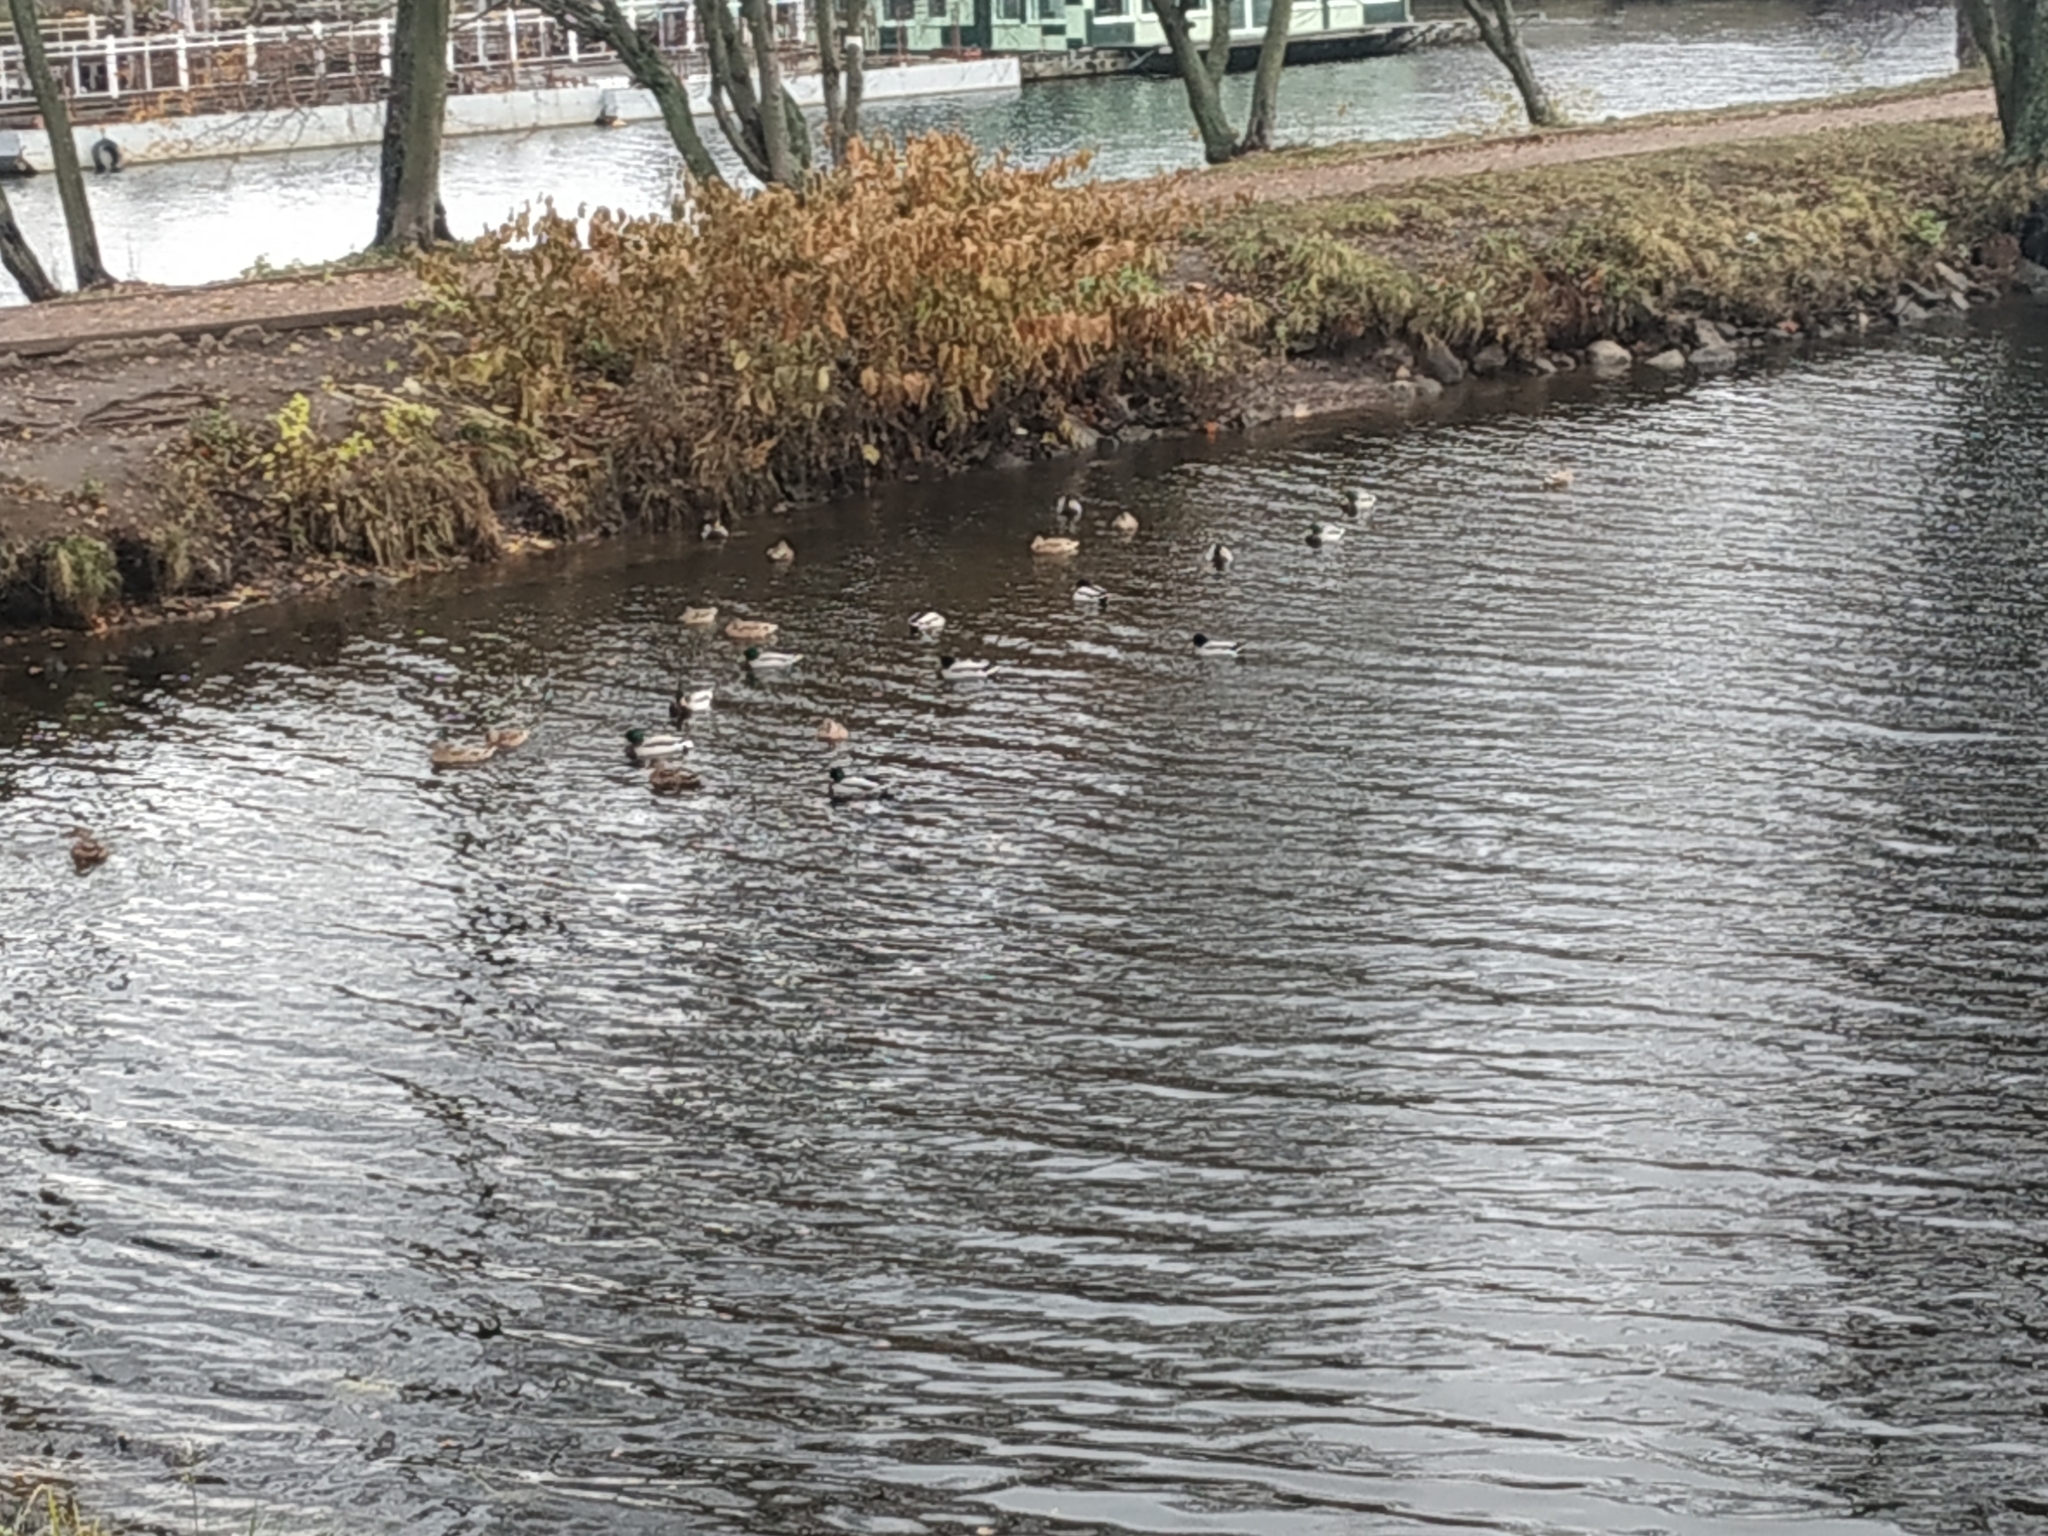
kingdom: Animalia
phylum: Chordata
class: Aves
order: Anseriformes
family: Anatidae
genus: Anas
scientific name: Anas platyrhynchos
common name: Mallard
